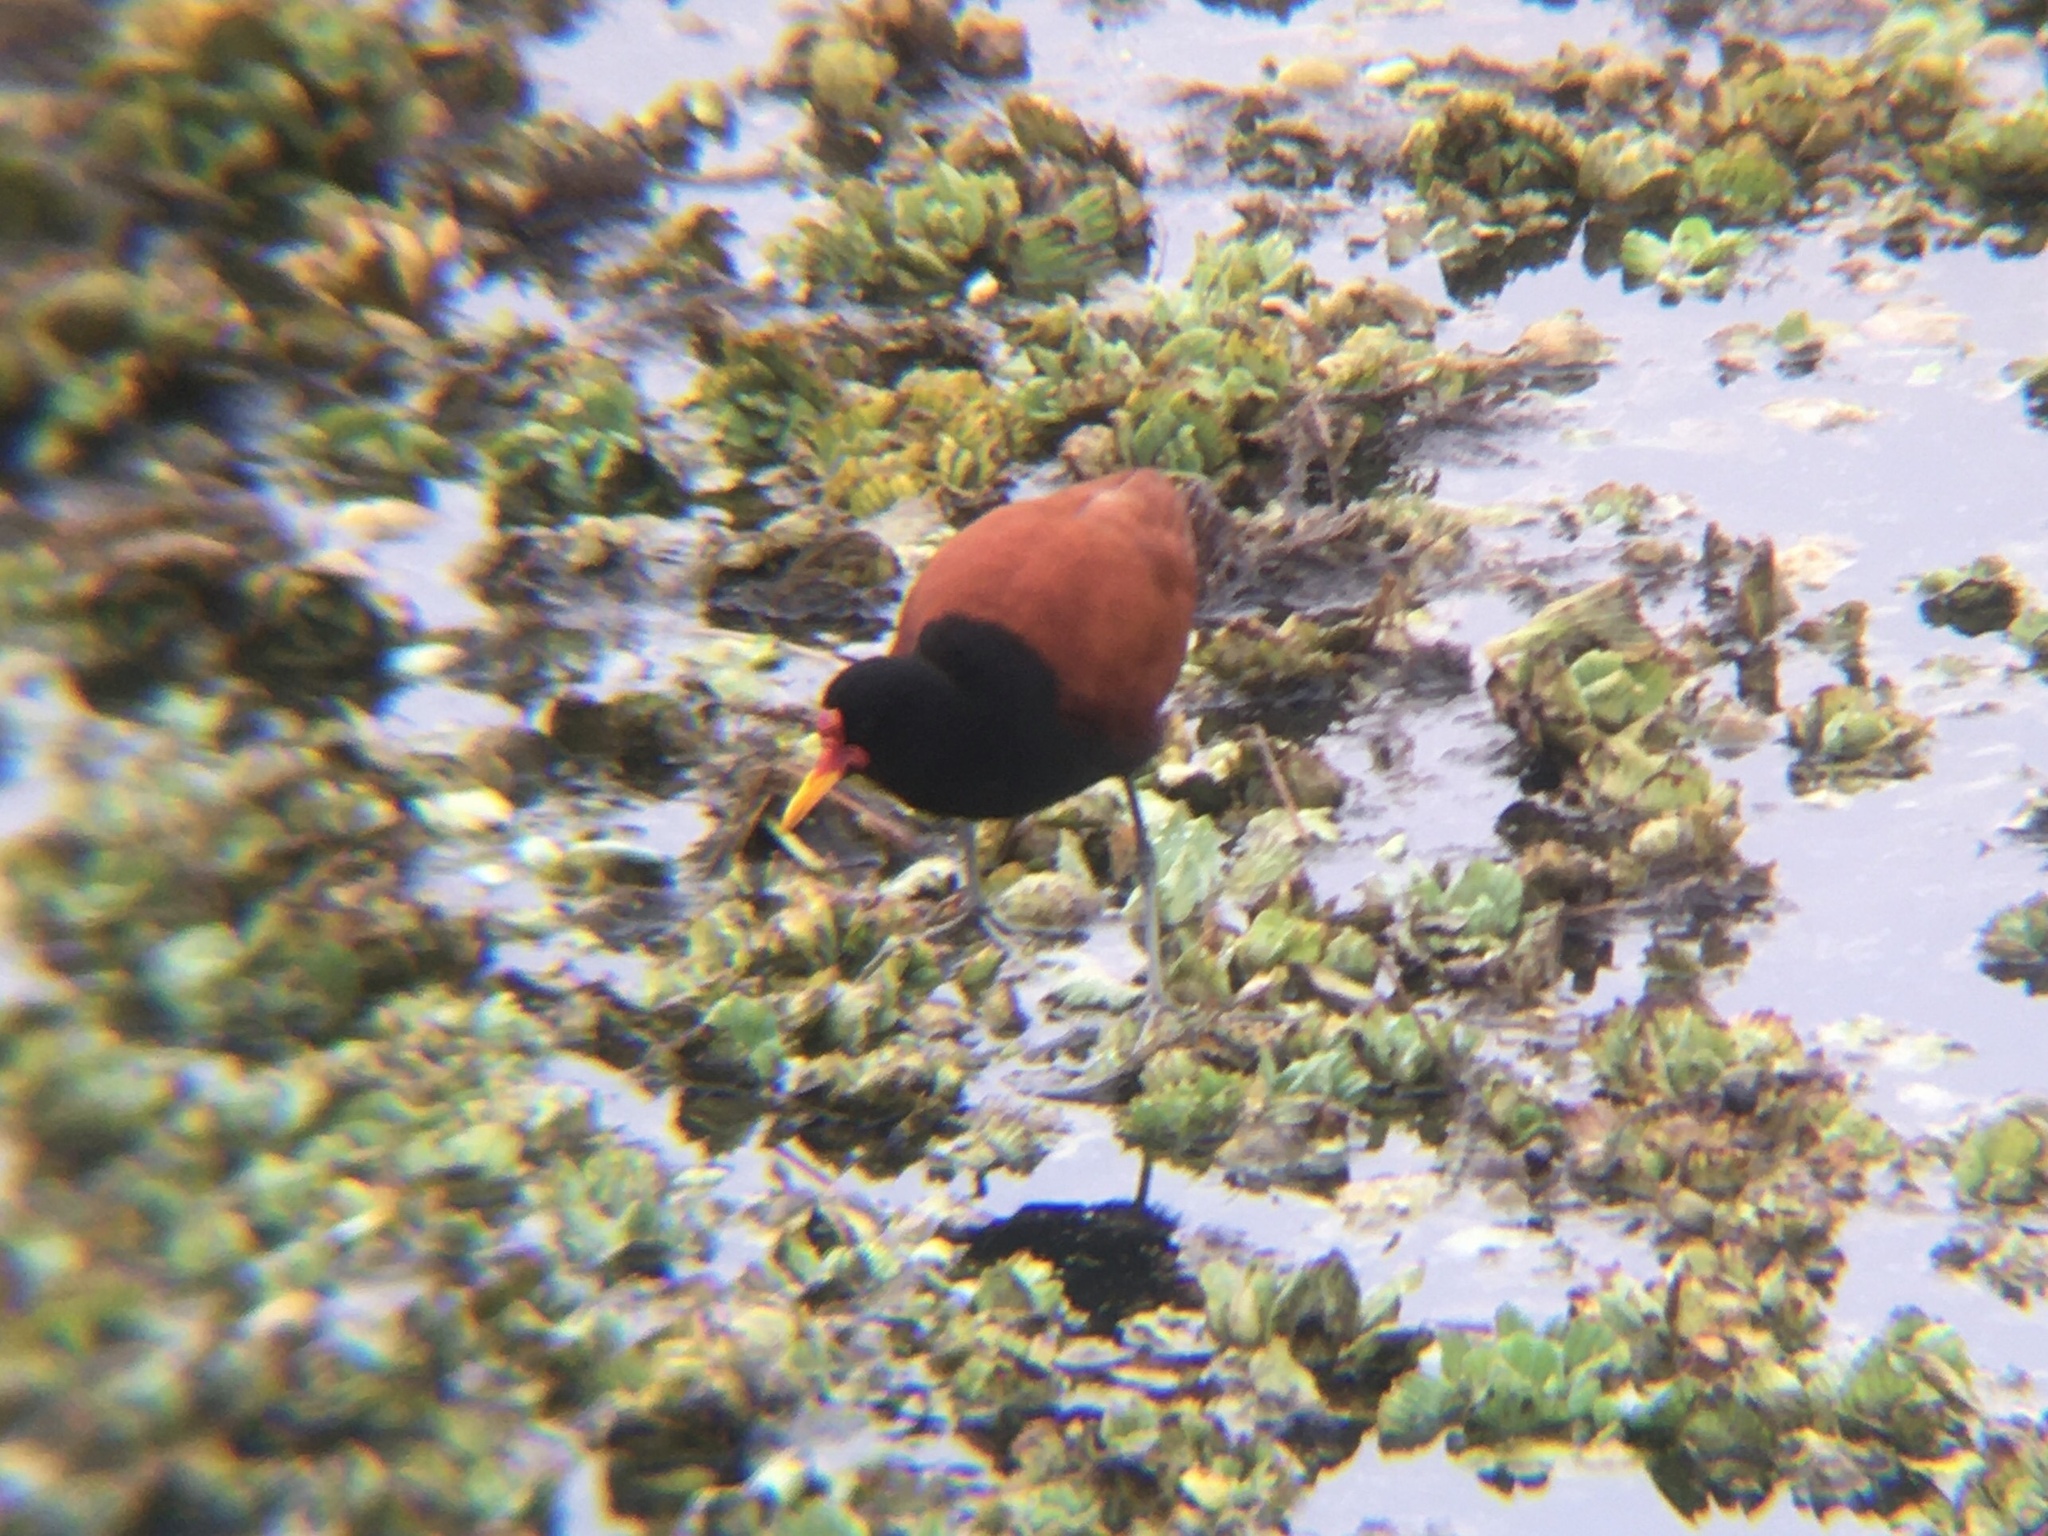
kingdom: Animalia
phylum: Chordata
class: Aves
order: Charadriiformes
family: Jacanidae
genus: Jacana
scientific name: Jacana jacana
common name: Wattled jacana
